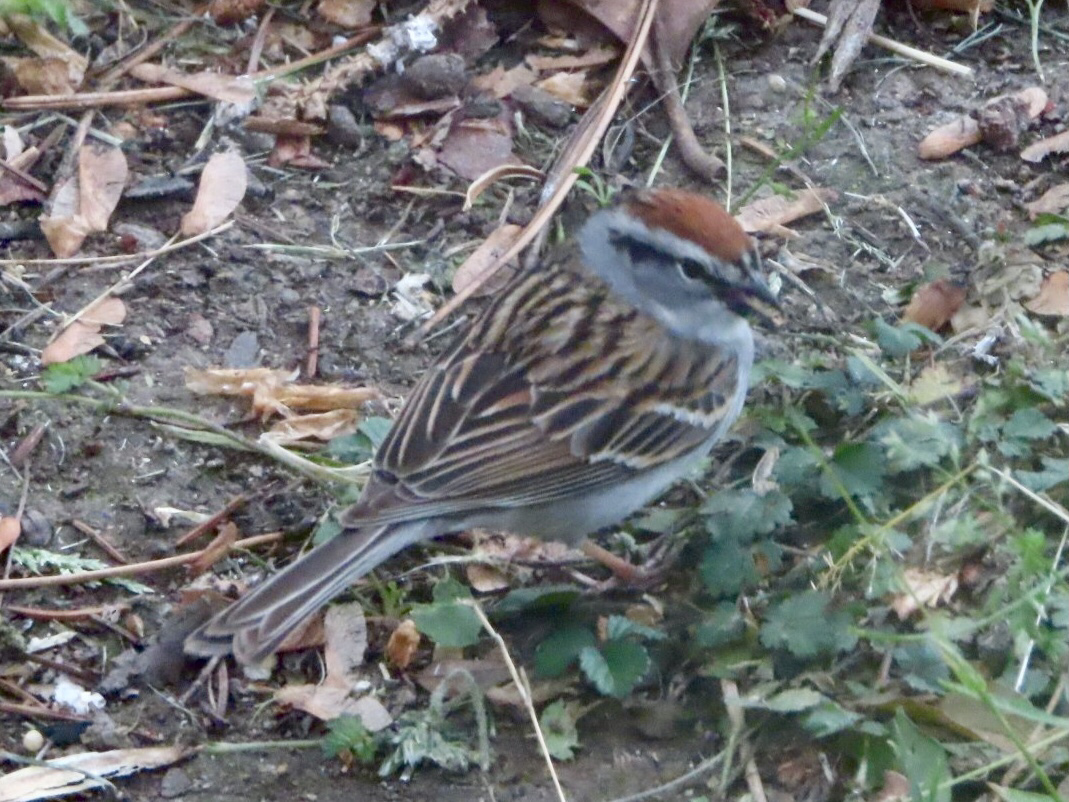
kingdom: Animalia
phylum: Chordata
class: Aves
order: Passeriformes
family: Passerellidae
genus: Spizella
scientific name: Spizella passerina
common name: Chipping sparrow
